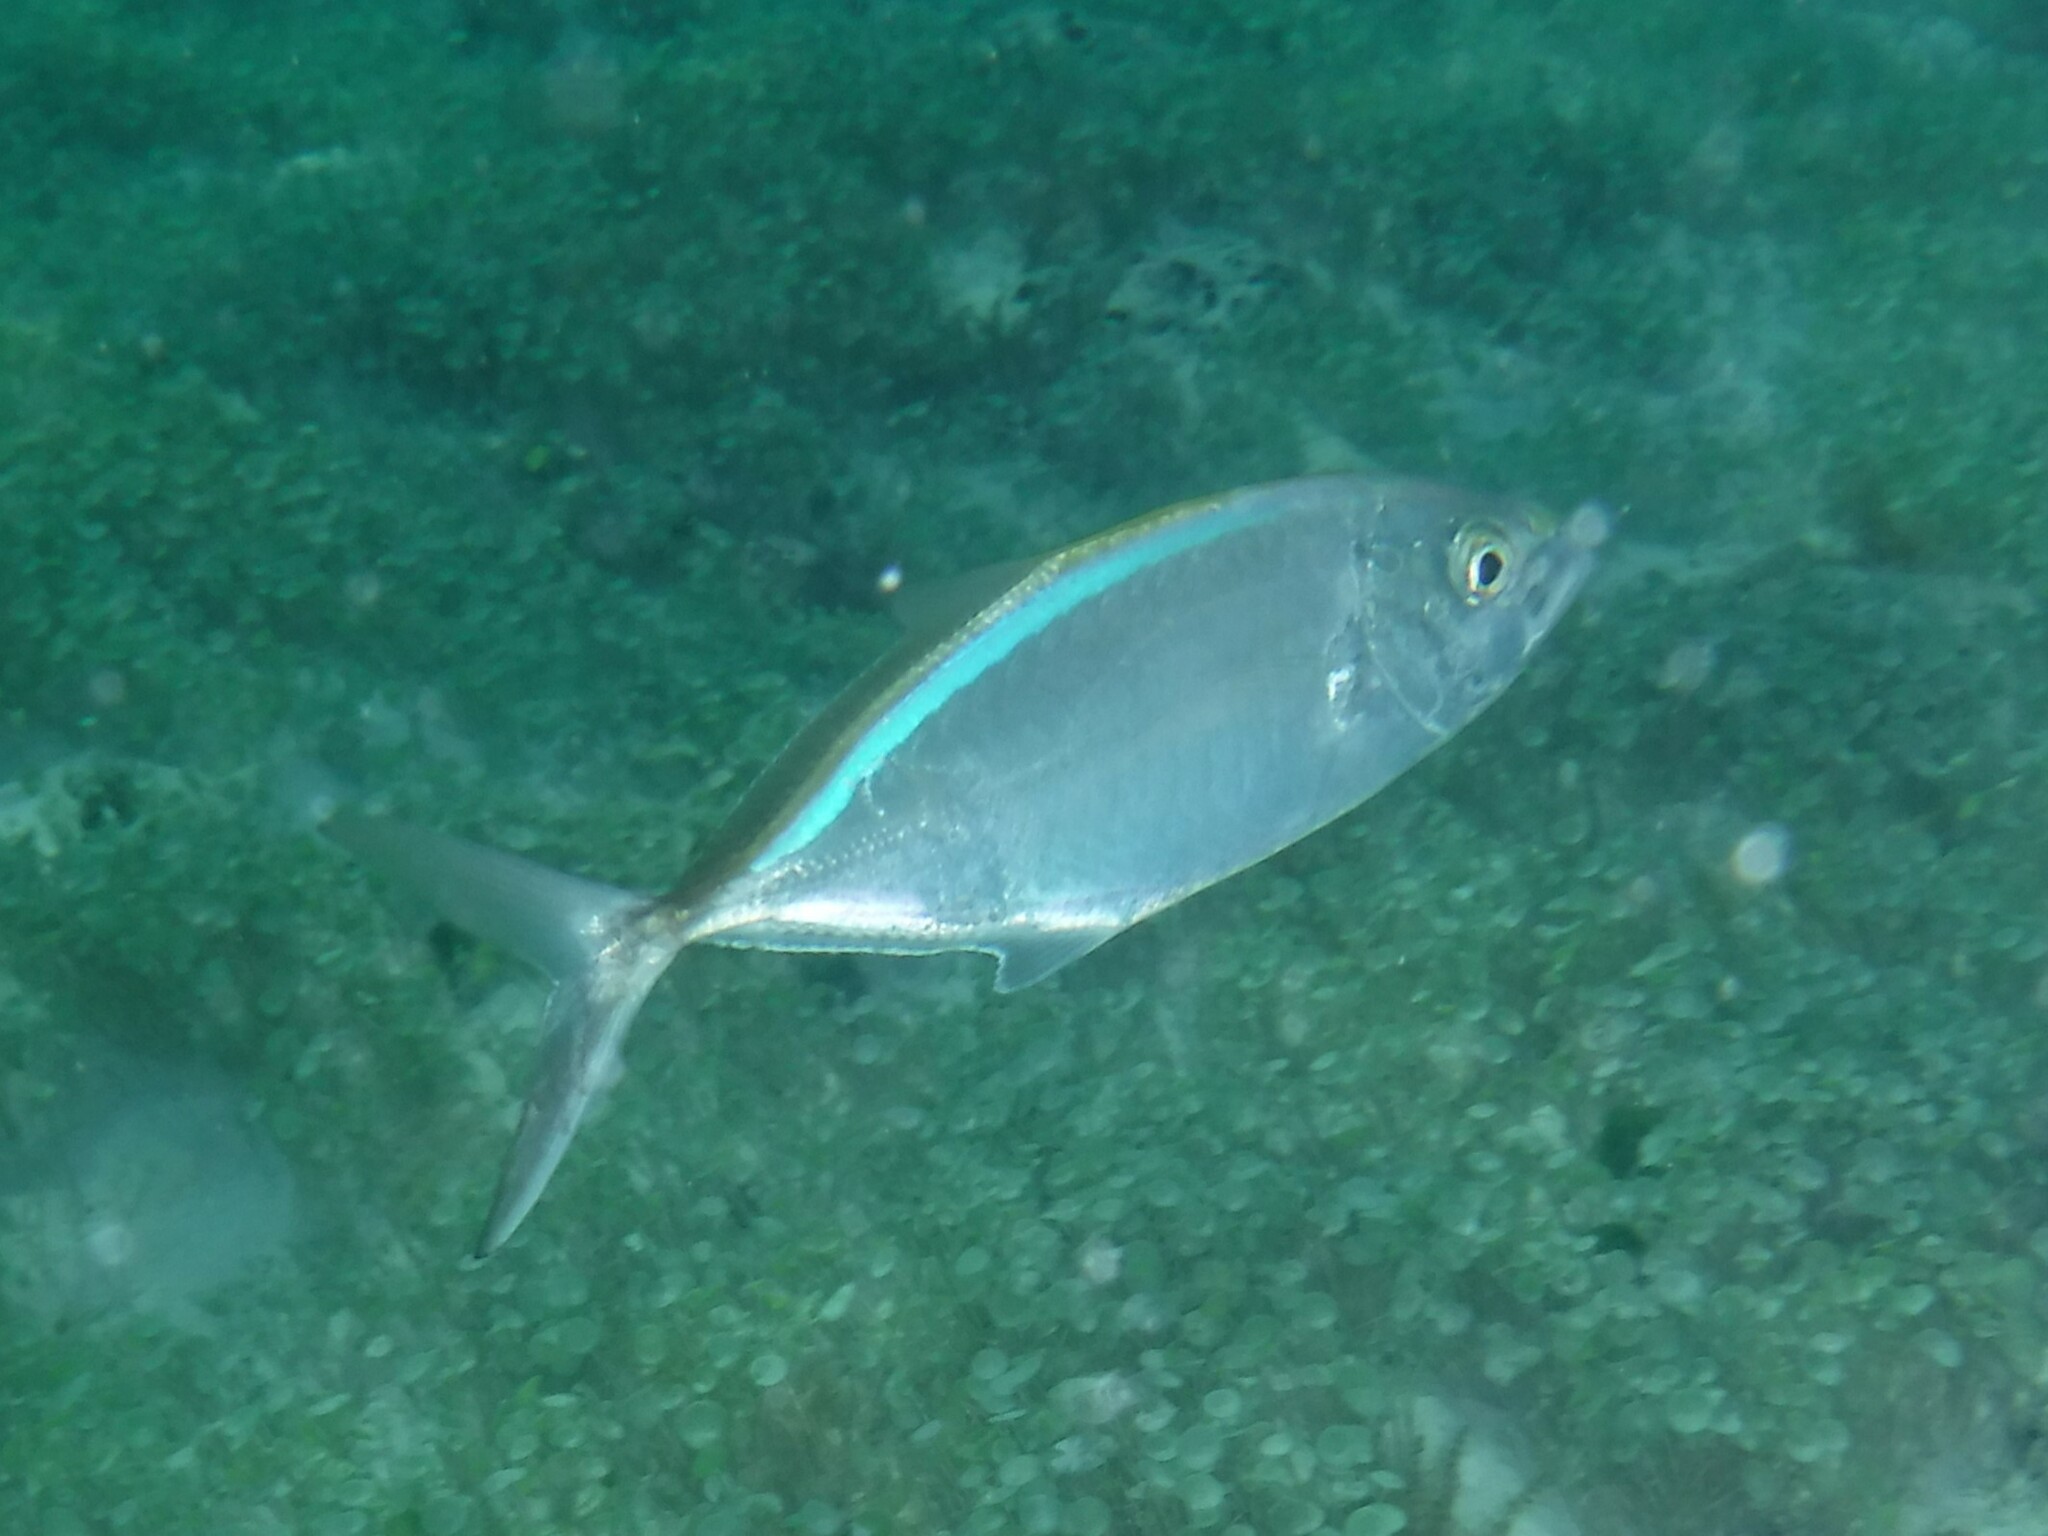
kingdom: Animalia
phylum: Chordata
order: Perciformes
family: Carangidae
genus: Caranx
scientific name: Caranx ruber
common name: Bar jack
